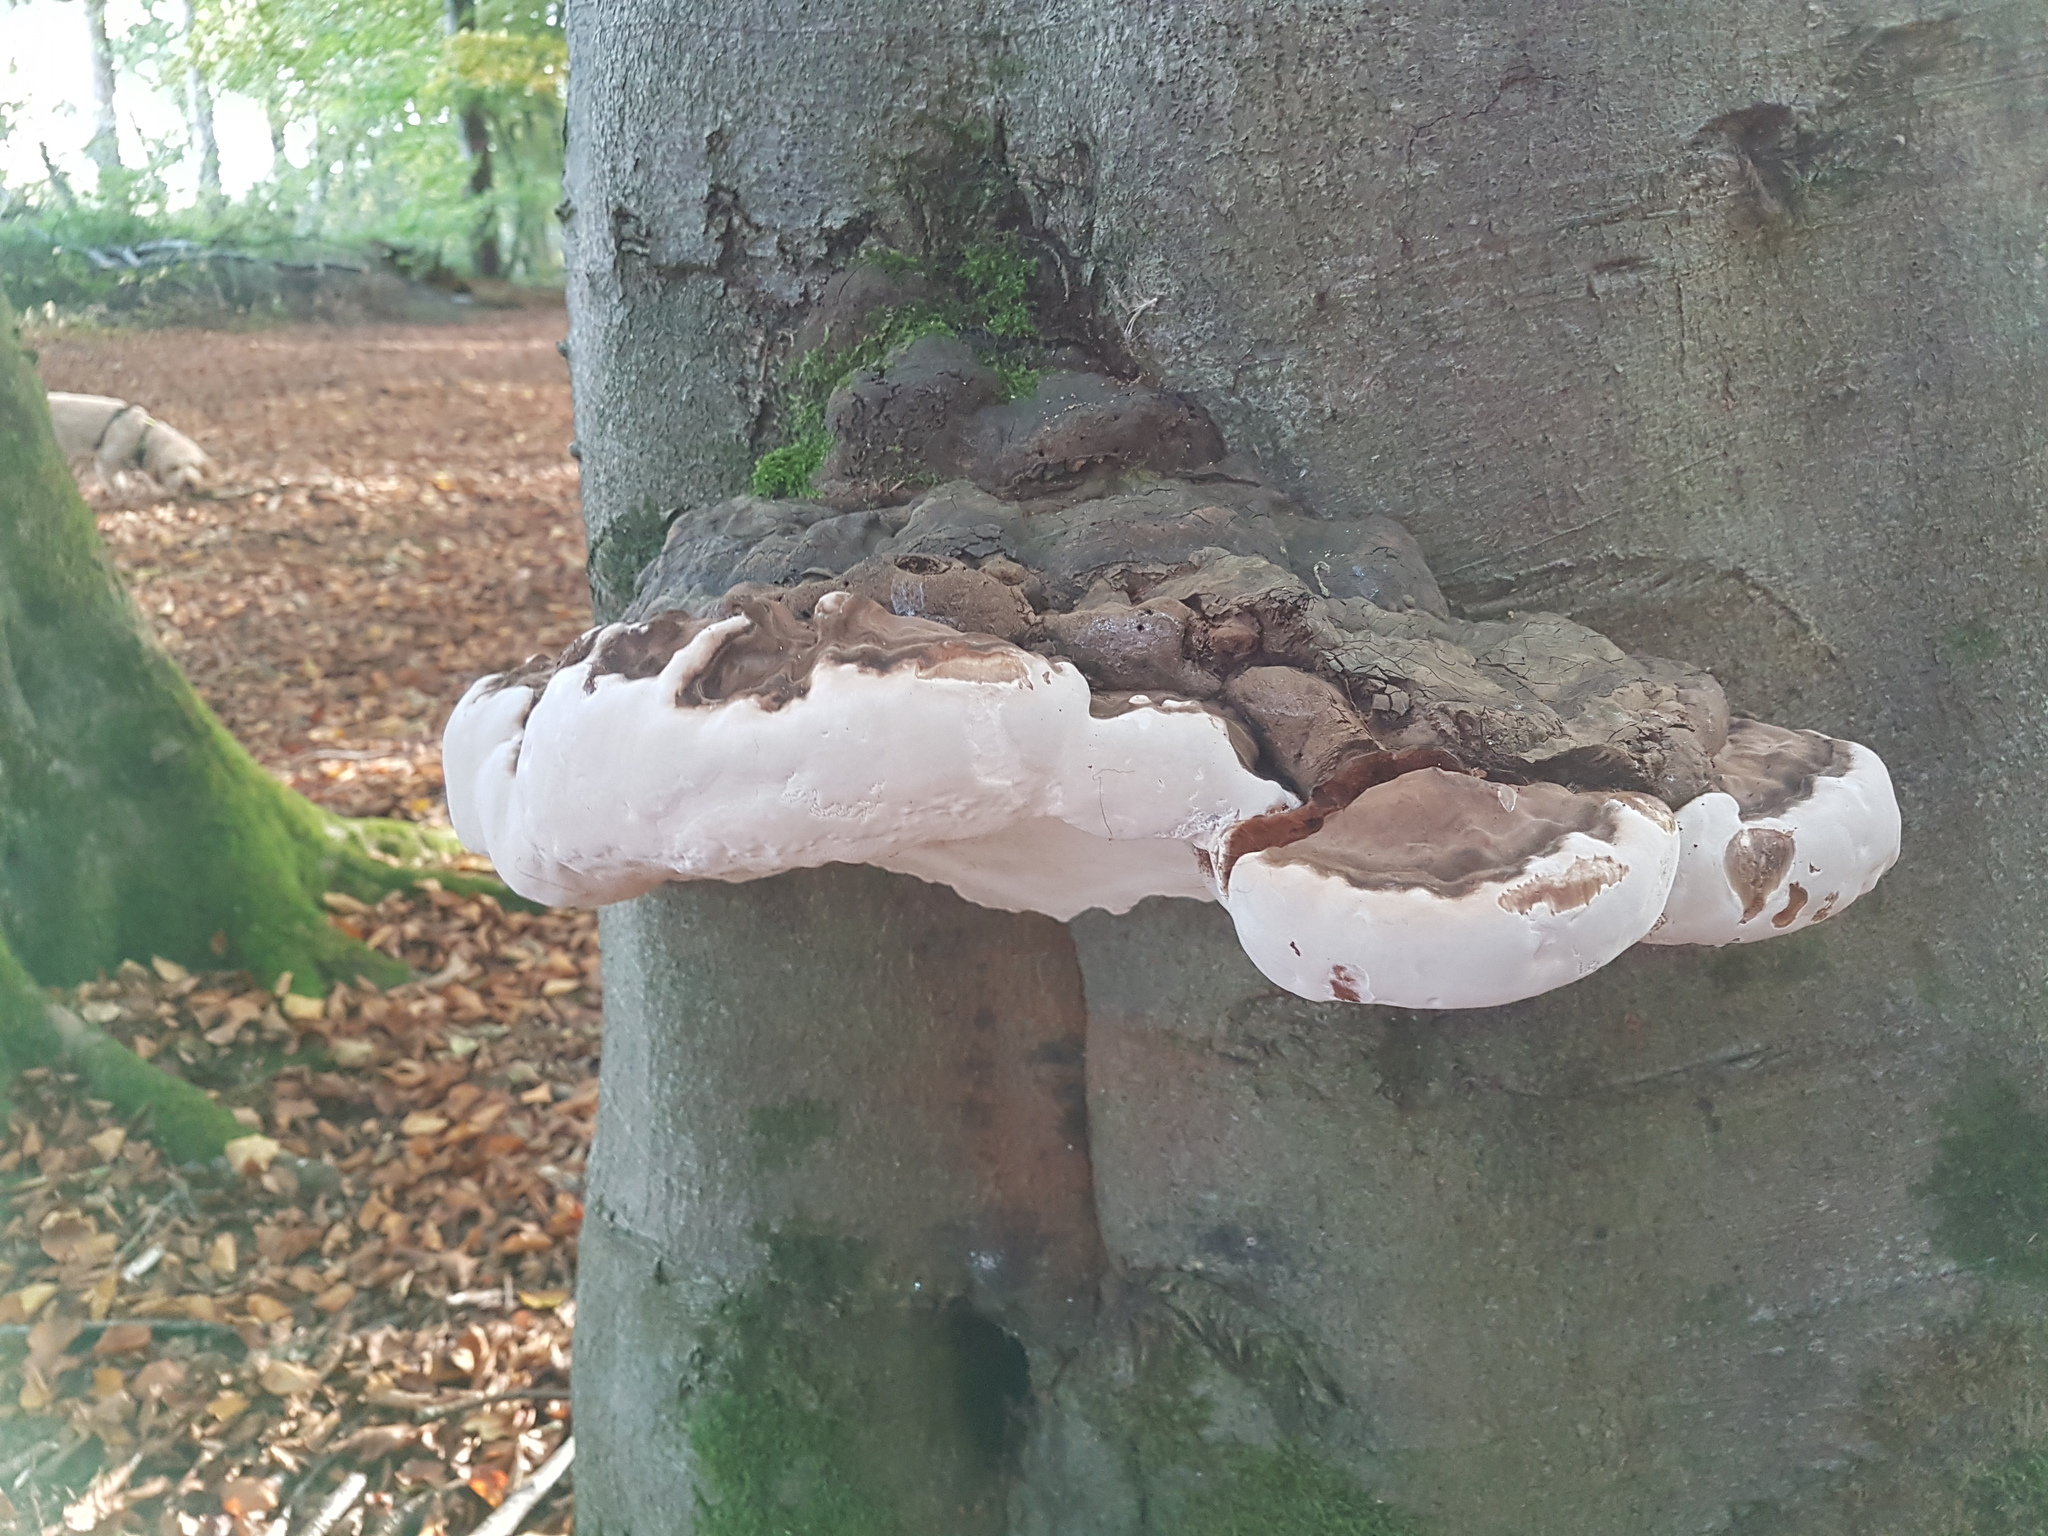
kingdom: Fungi
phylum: Basidiomycota
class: Agaricomycetes
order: Polyporales
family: Polyporaceae
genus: Ganoderma
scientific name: Ganoderma resinaceum
